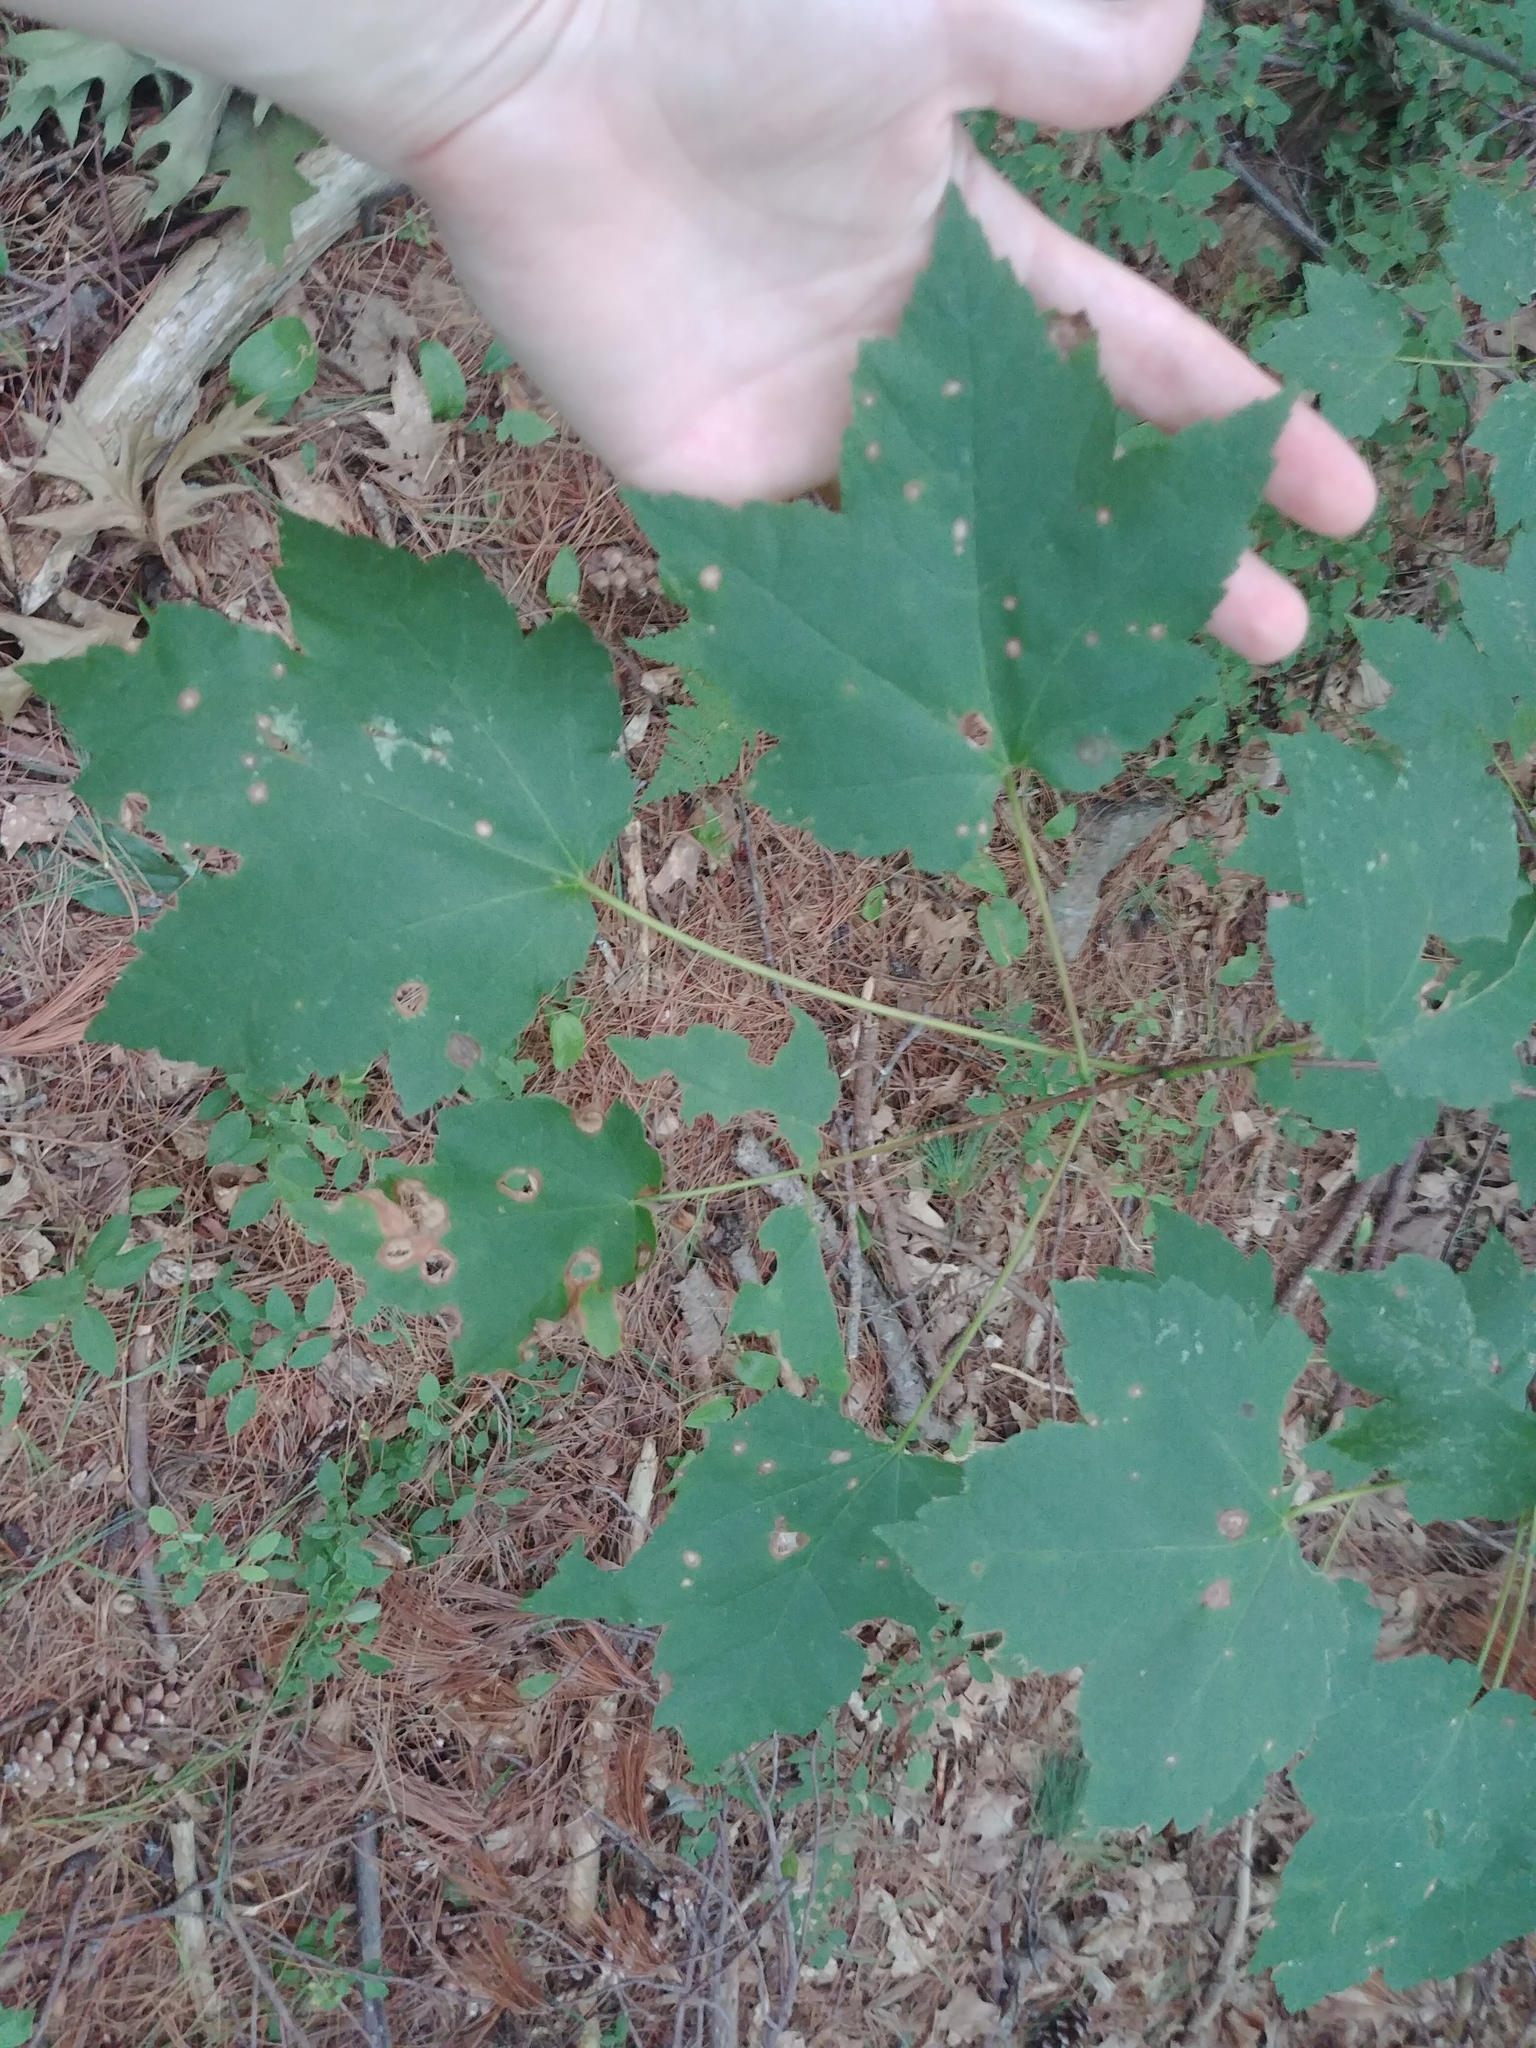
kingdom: Plantae
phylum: Tracheophyta
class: Magnoliopsida
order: Sapindales
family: Sapindaceae
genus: Acer
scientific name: Acer rubrum
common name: Red maple
